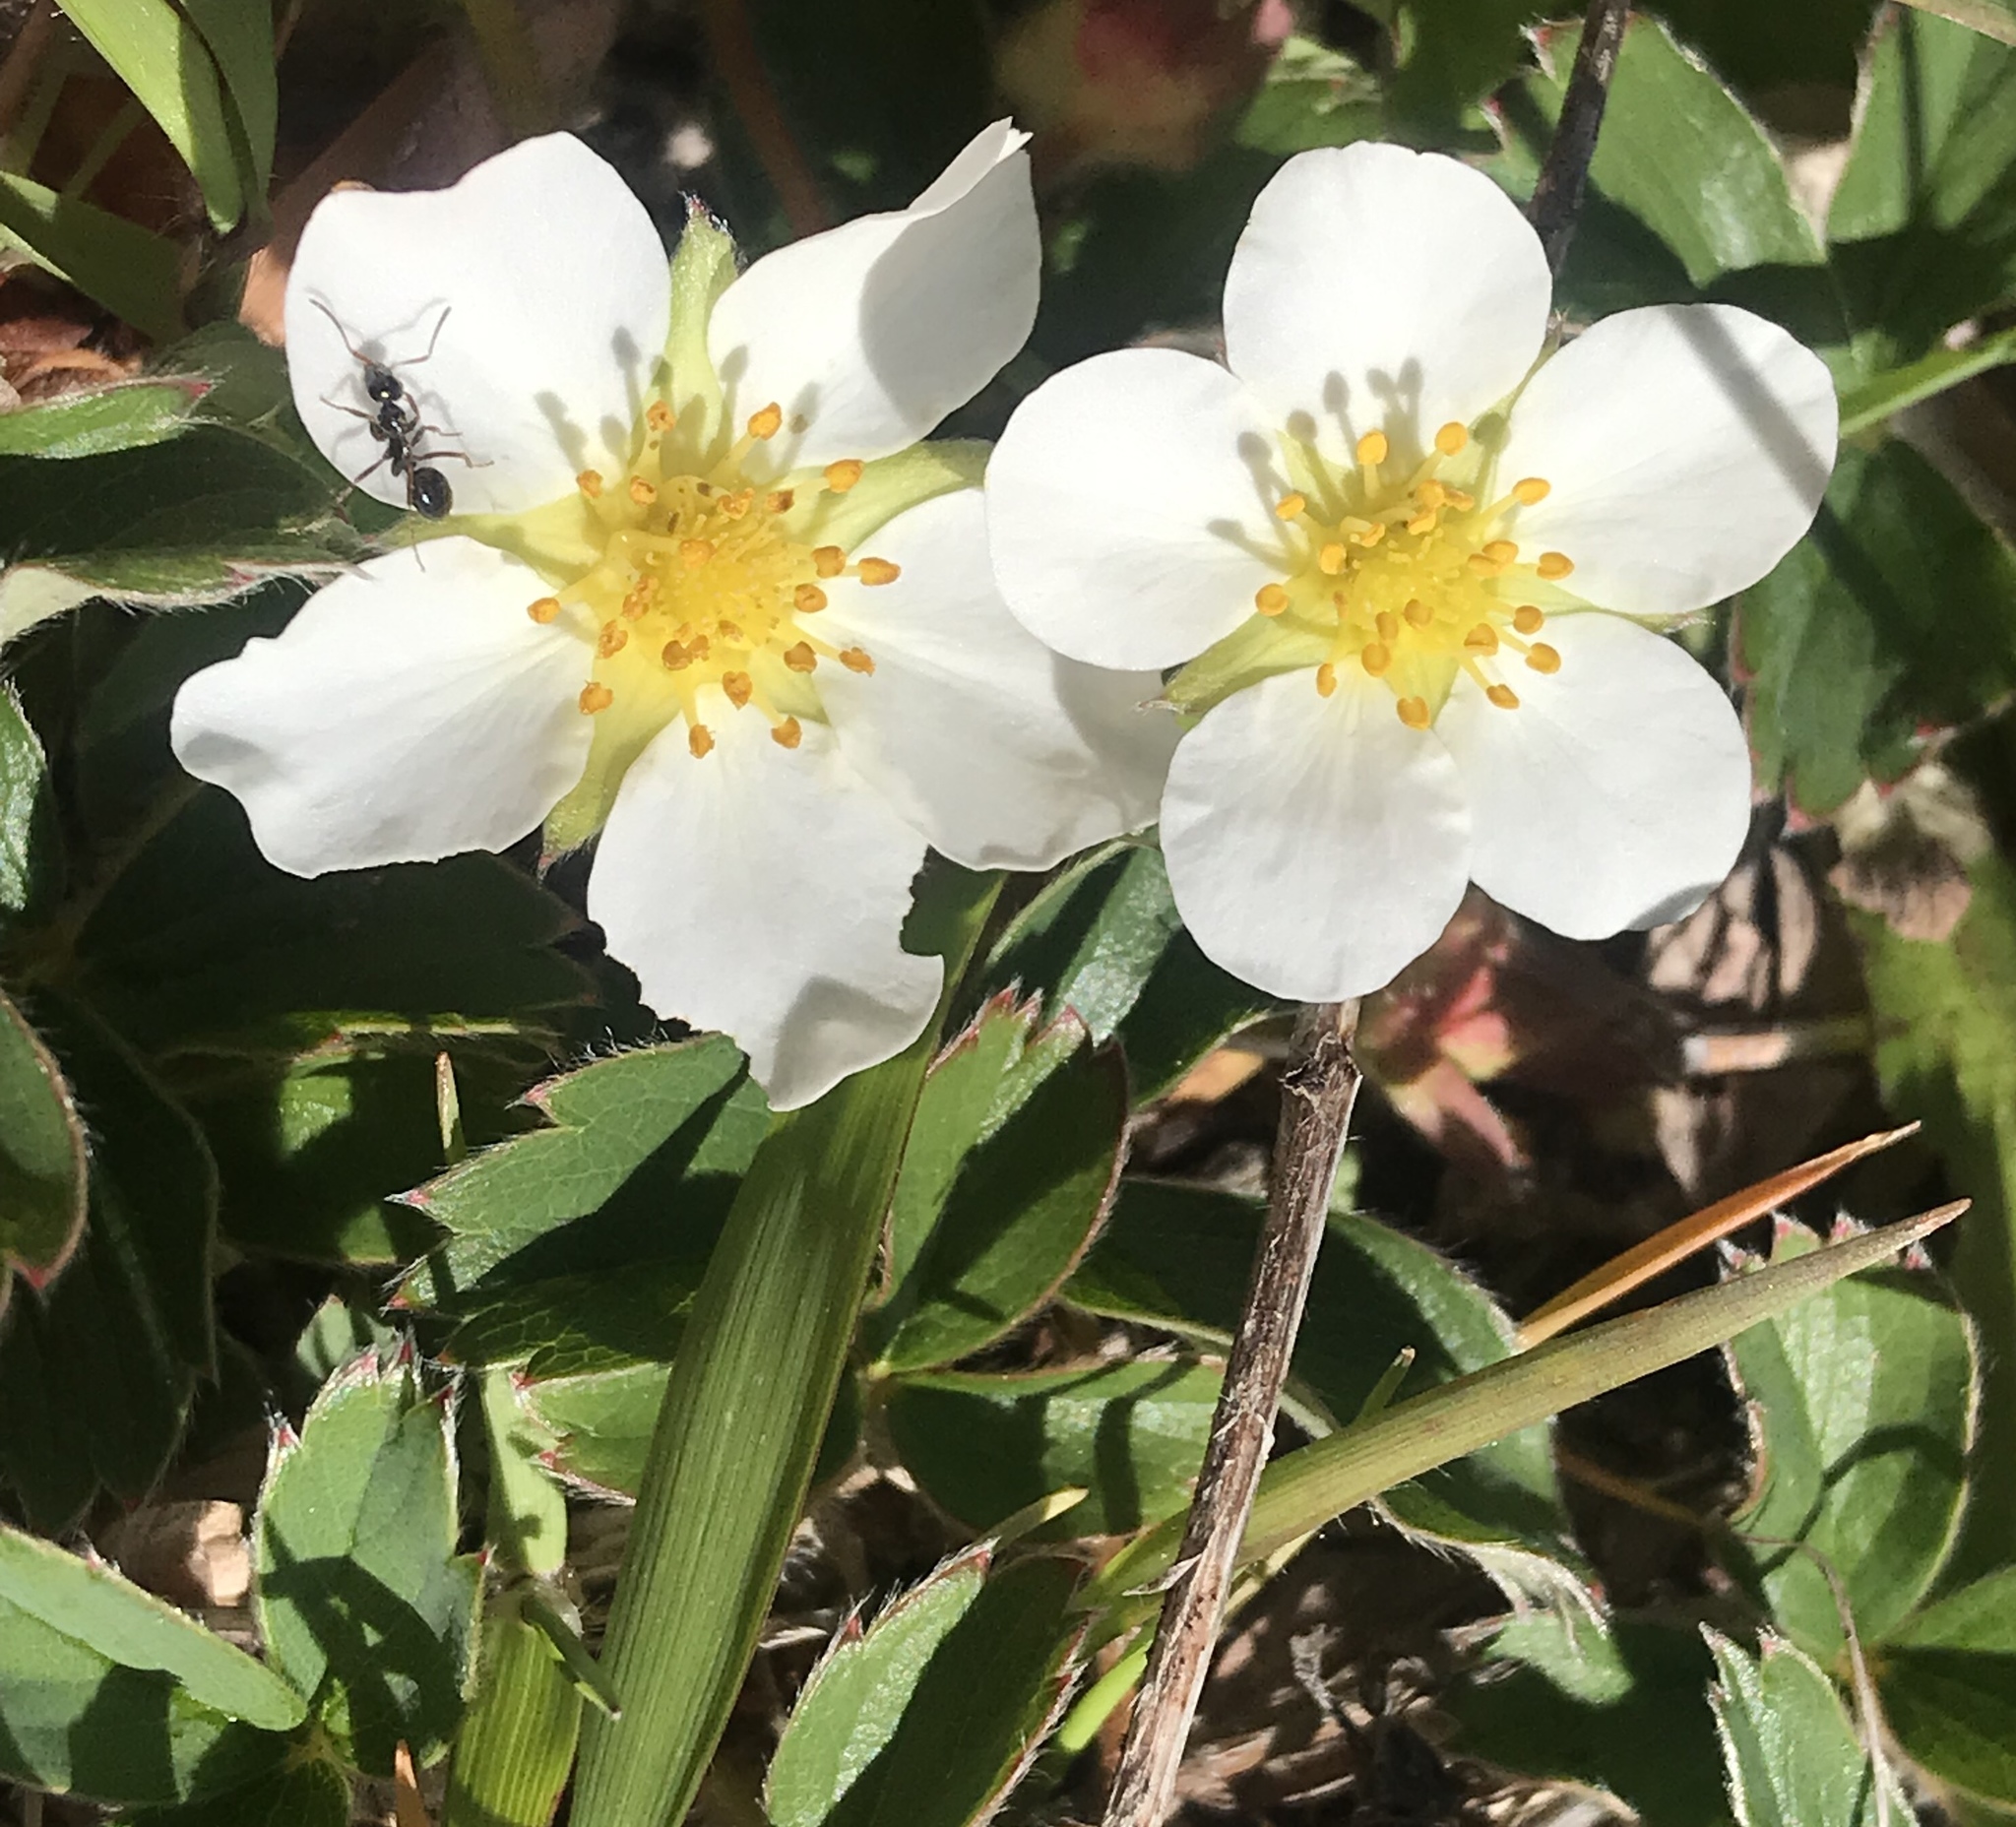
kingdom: Plantae
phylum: Tracheophyta
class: Magnoliopsida
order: Rosales
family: Rosaceae
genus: Fragaria
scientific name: Fragaria chiloensis
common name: Beach strawberry
